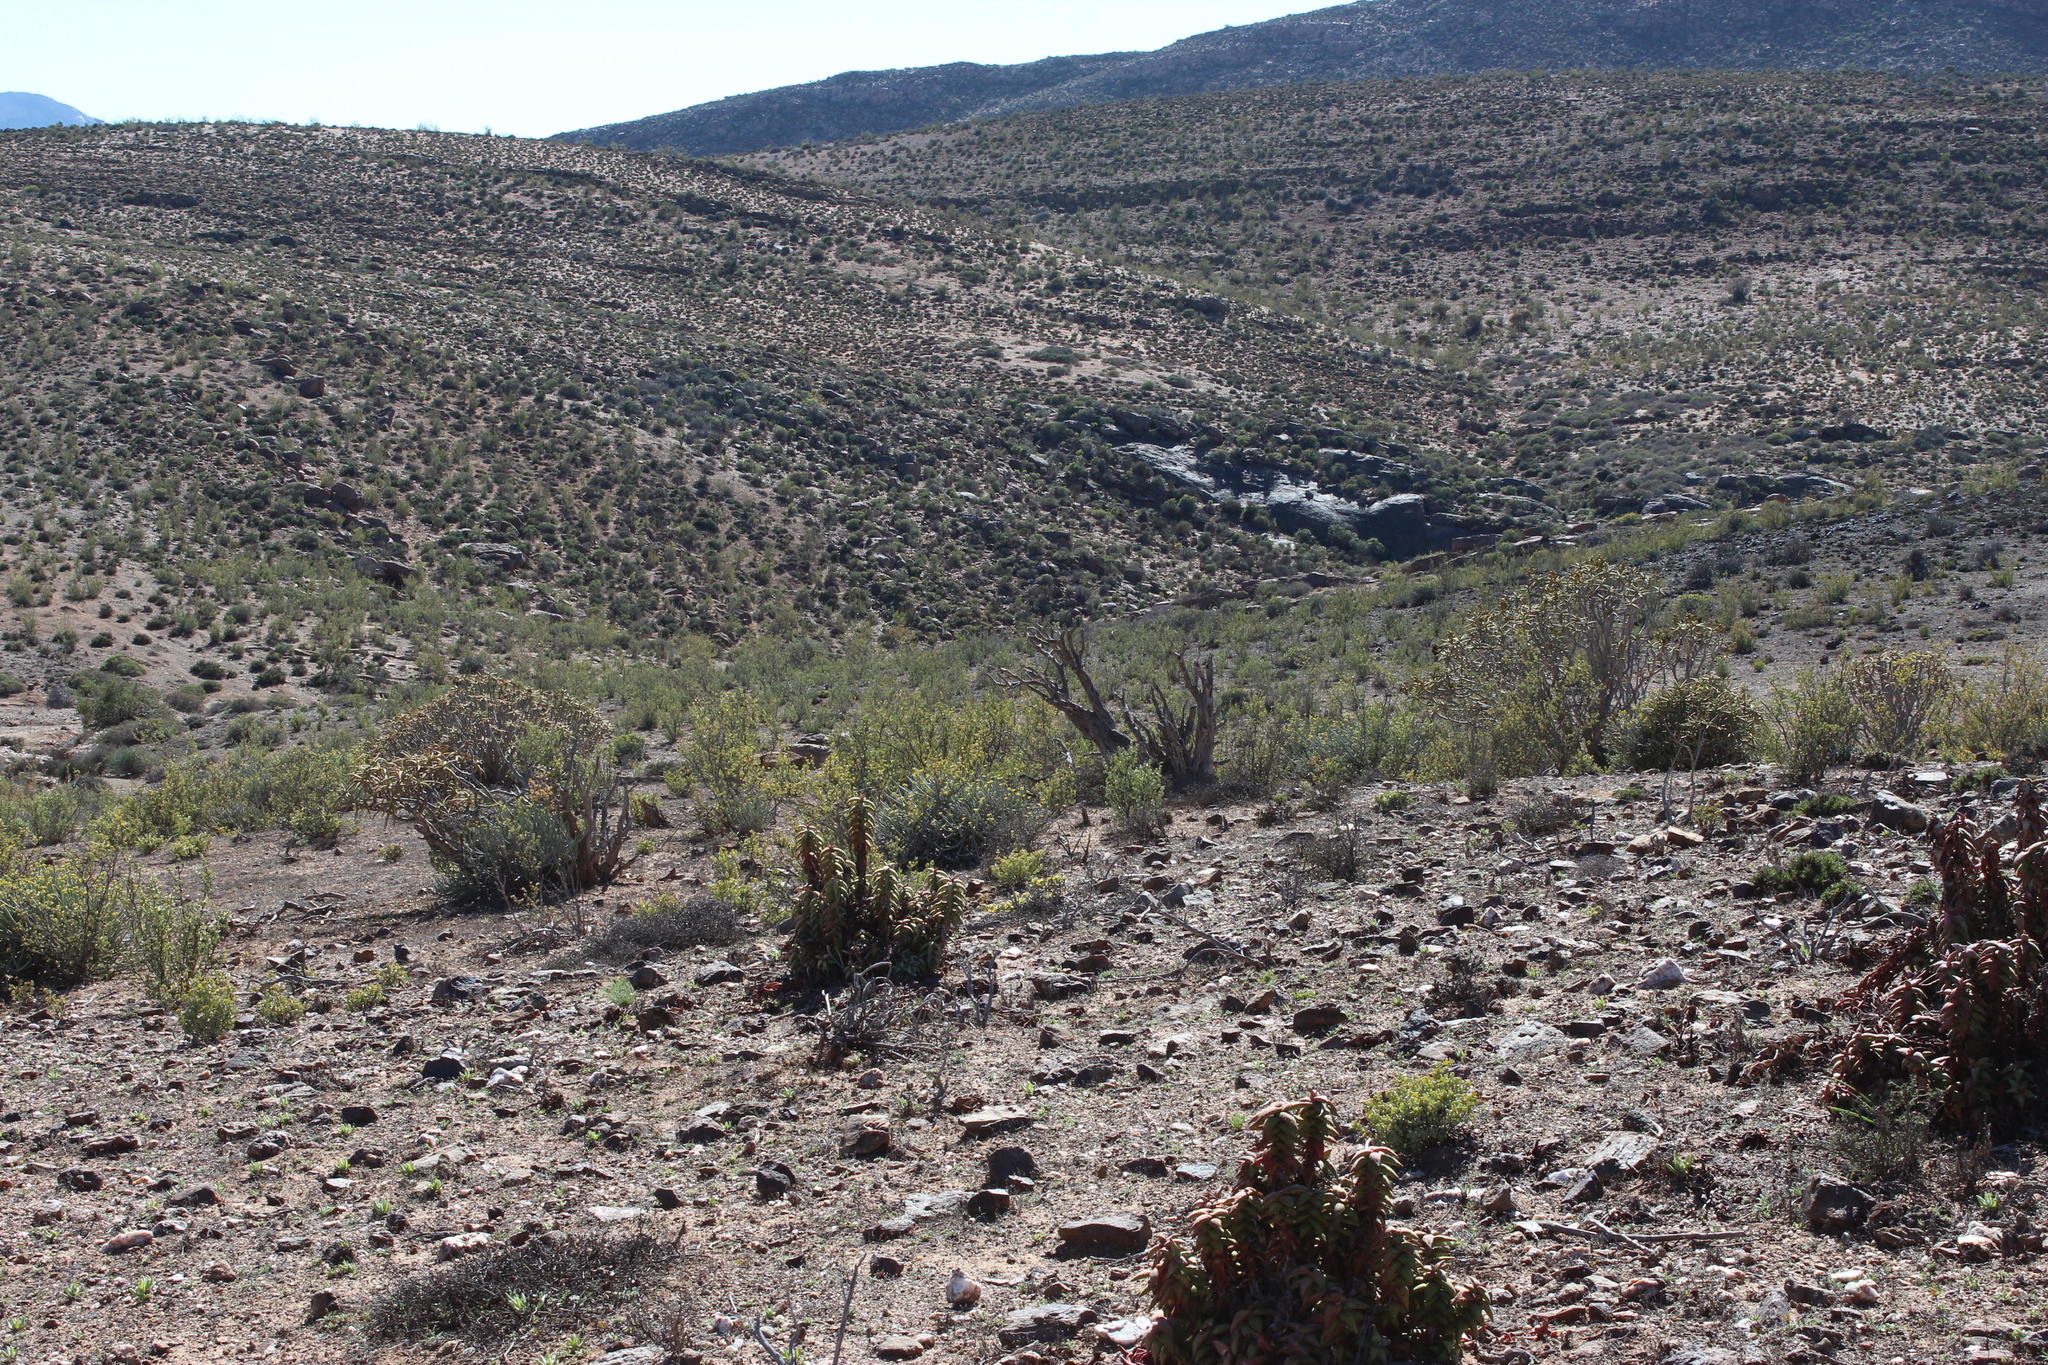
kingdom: Plantae
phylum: Tracheophyta
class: Liliopsida
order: Asparagales
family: Asphodelaceae
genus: Aloidendron
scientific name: Aloidendron ramosissimum
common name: Bush quiver tree
